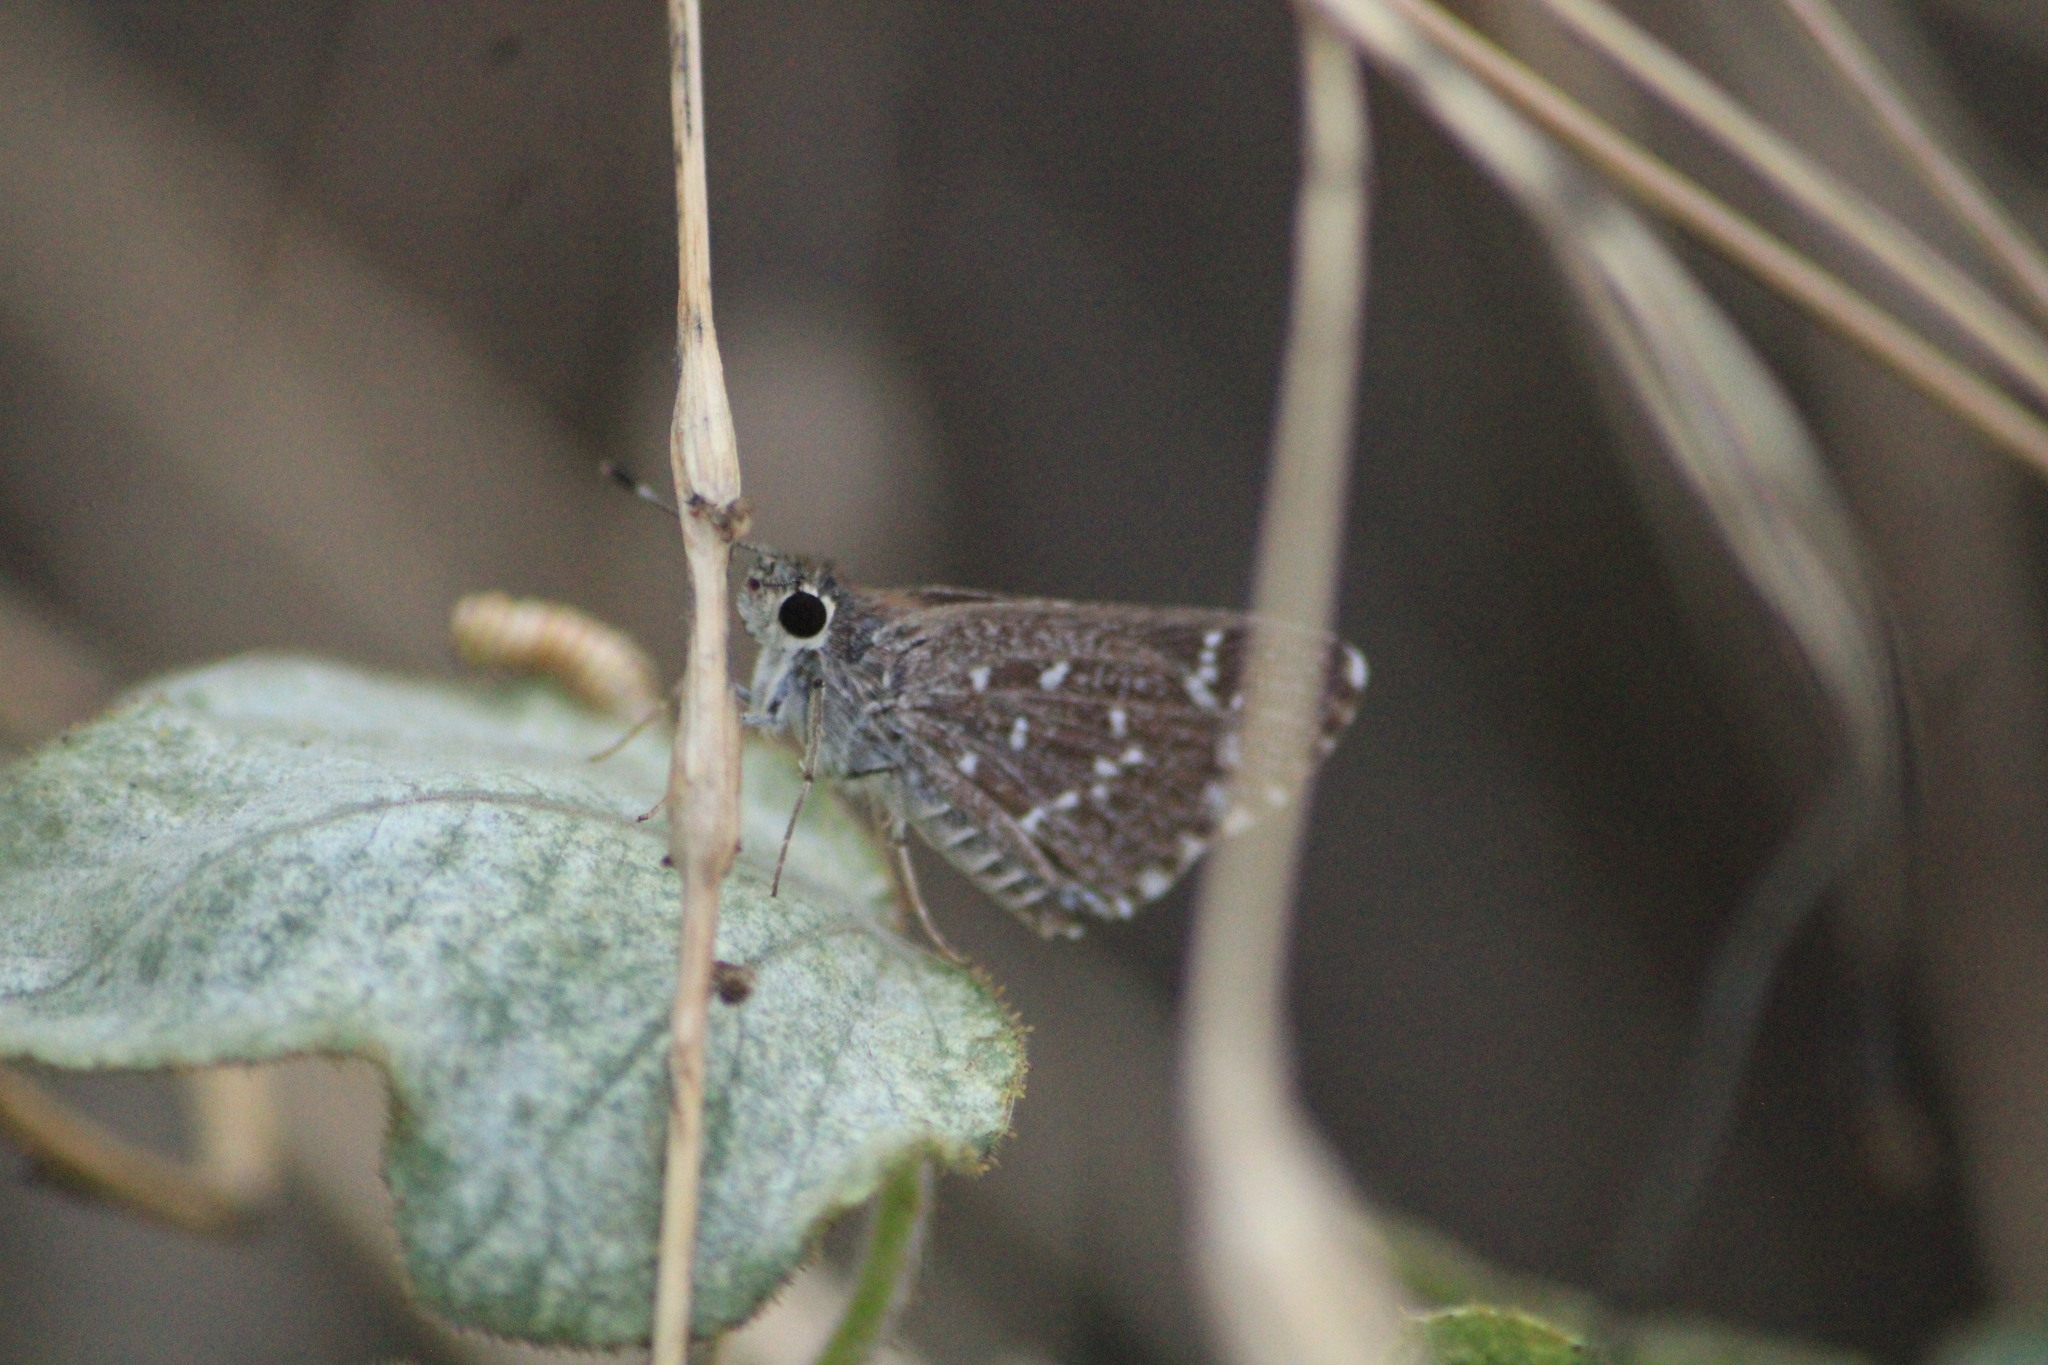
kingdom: Animalia
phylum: Arthropoda
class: Insecta
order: Lepidoptera
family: Hesperiidae
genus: Mastor
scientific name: Mastor tolteca
